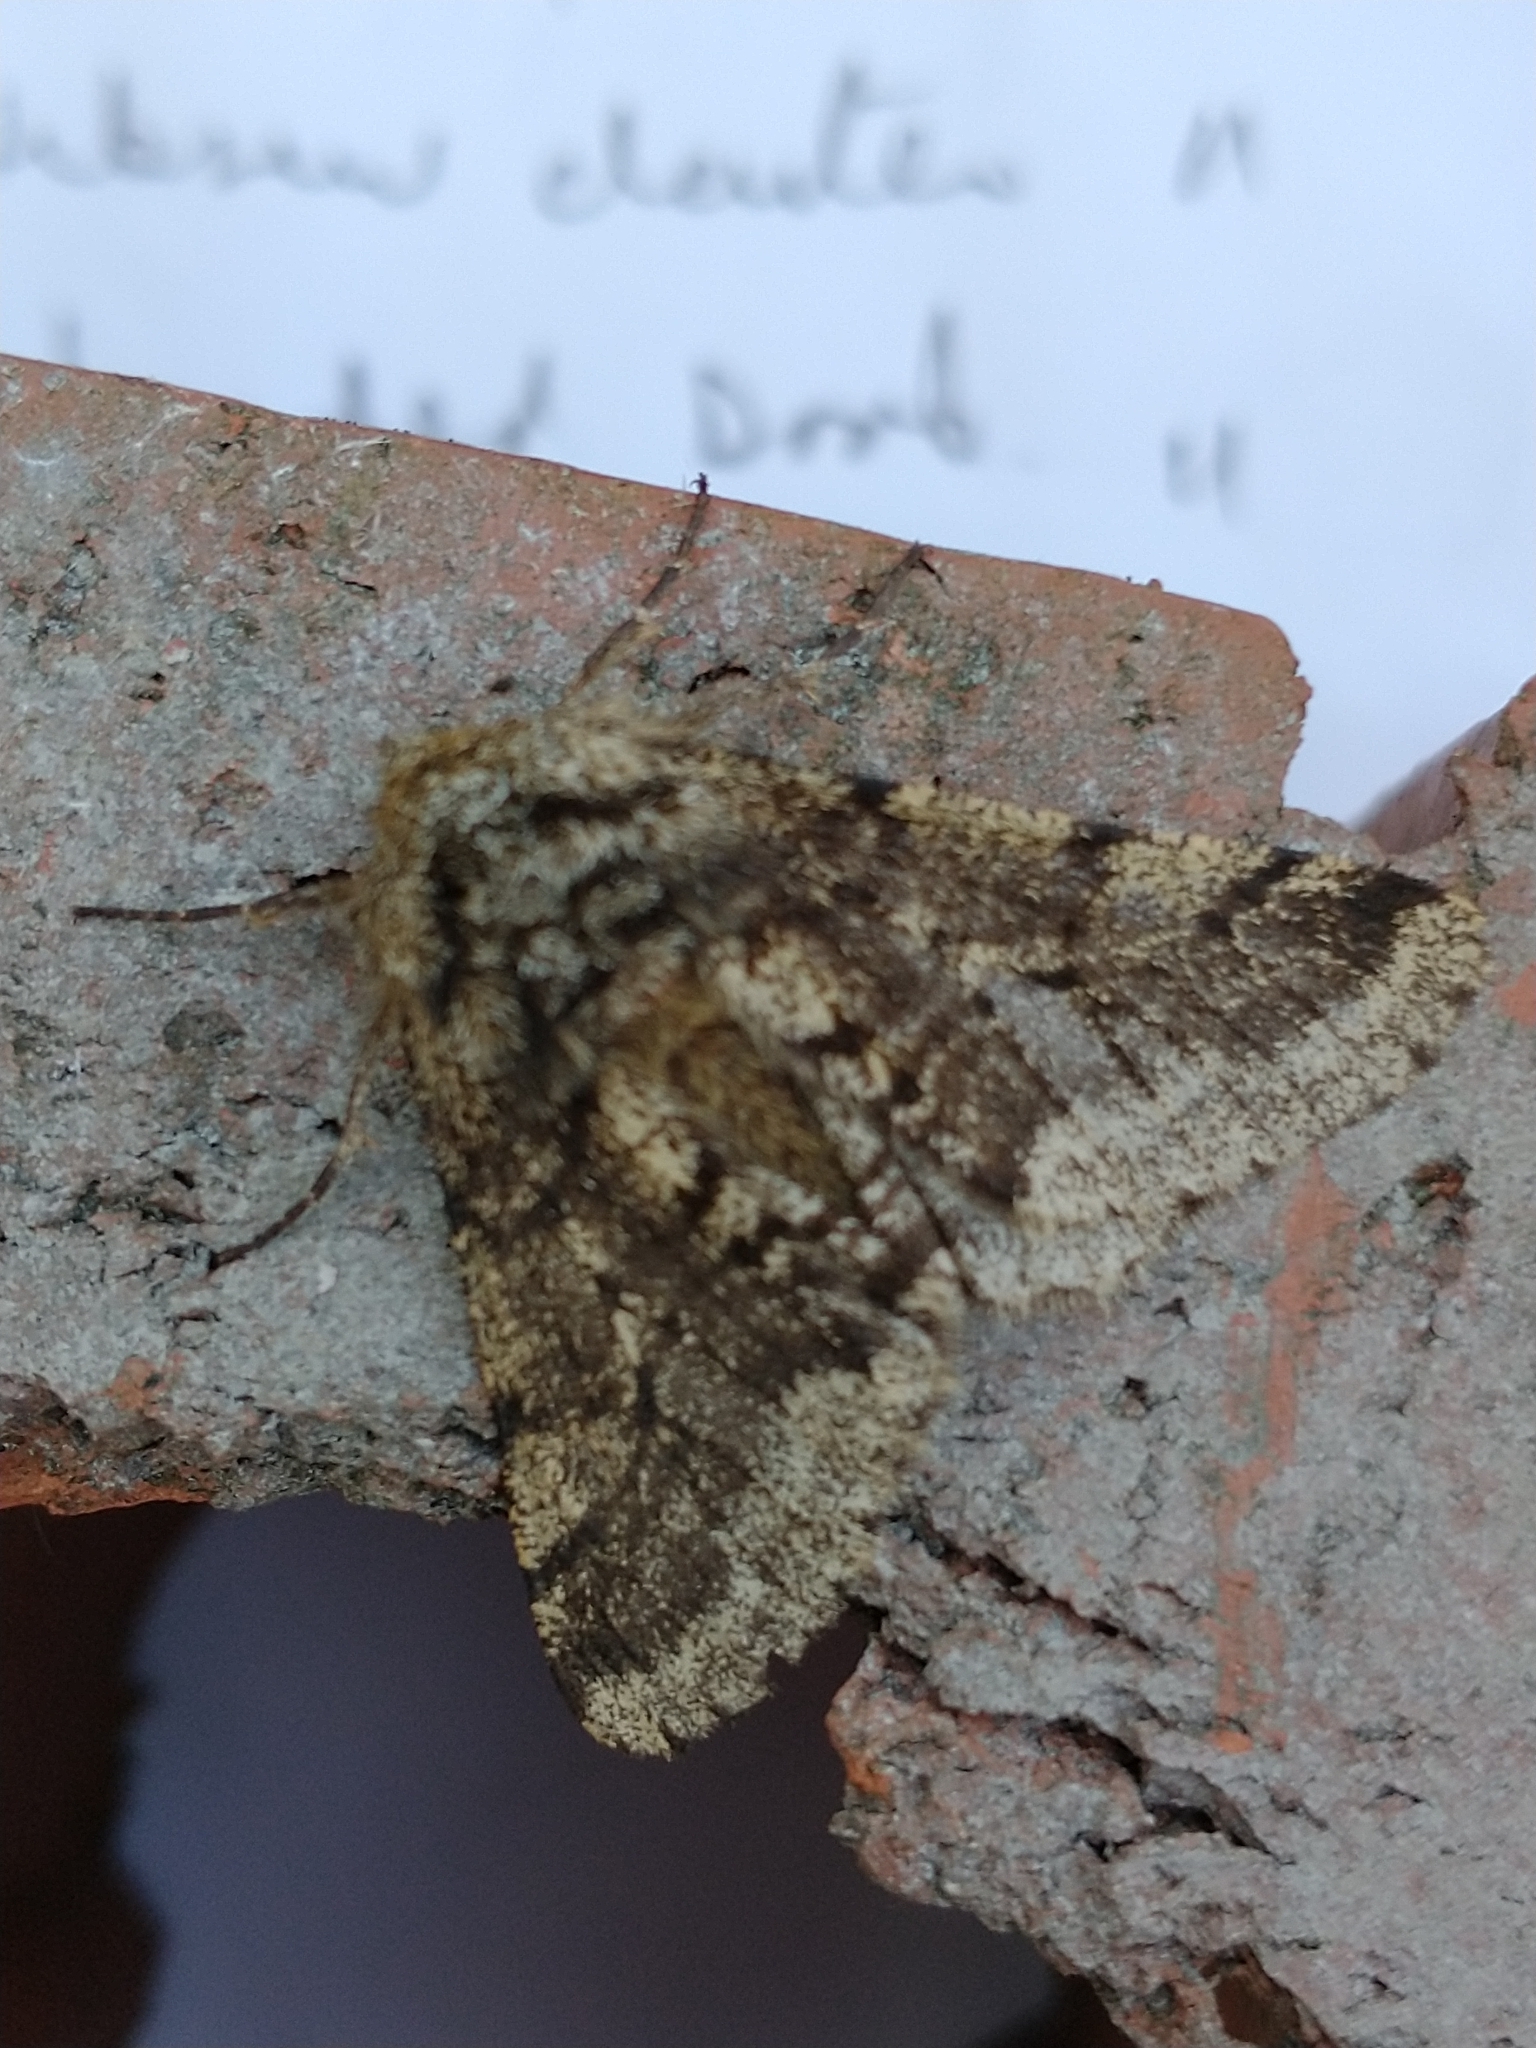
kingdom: Animalia
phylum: Arthropoda
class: Insecta
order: Lepidoptera
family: Geometridae
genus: Lycia
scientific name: Lycia hirtaria
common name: Brindled beauty
